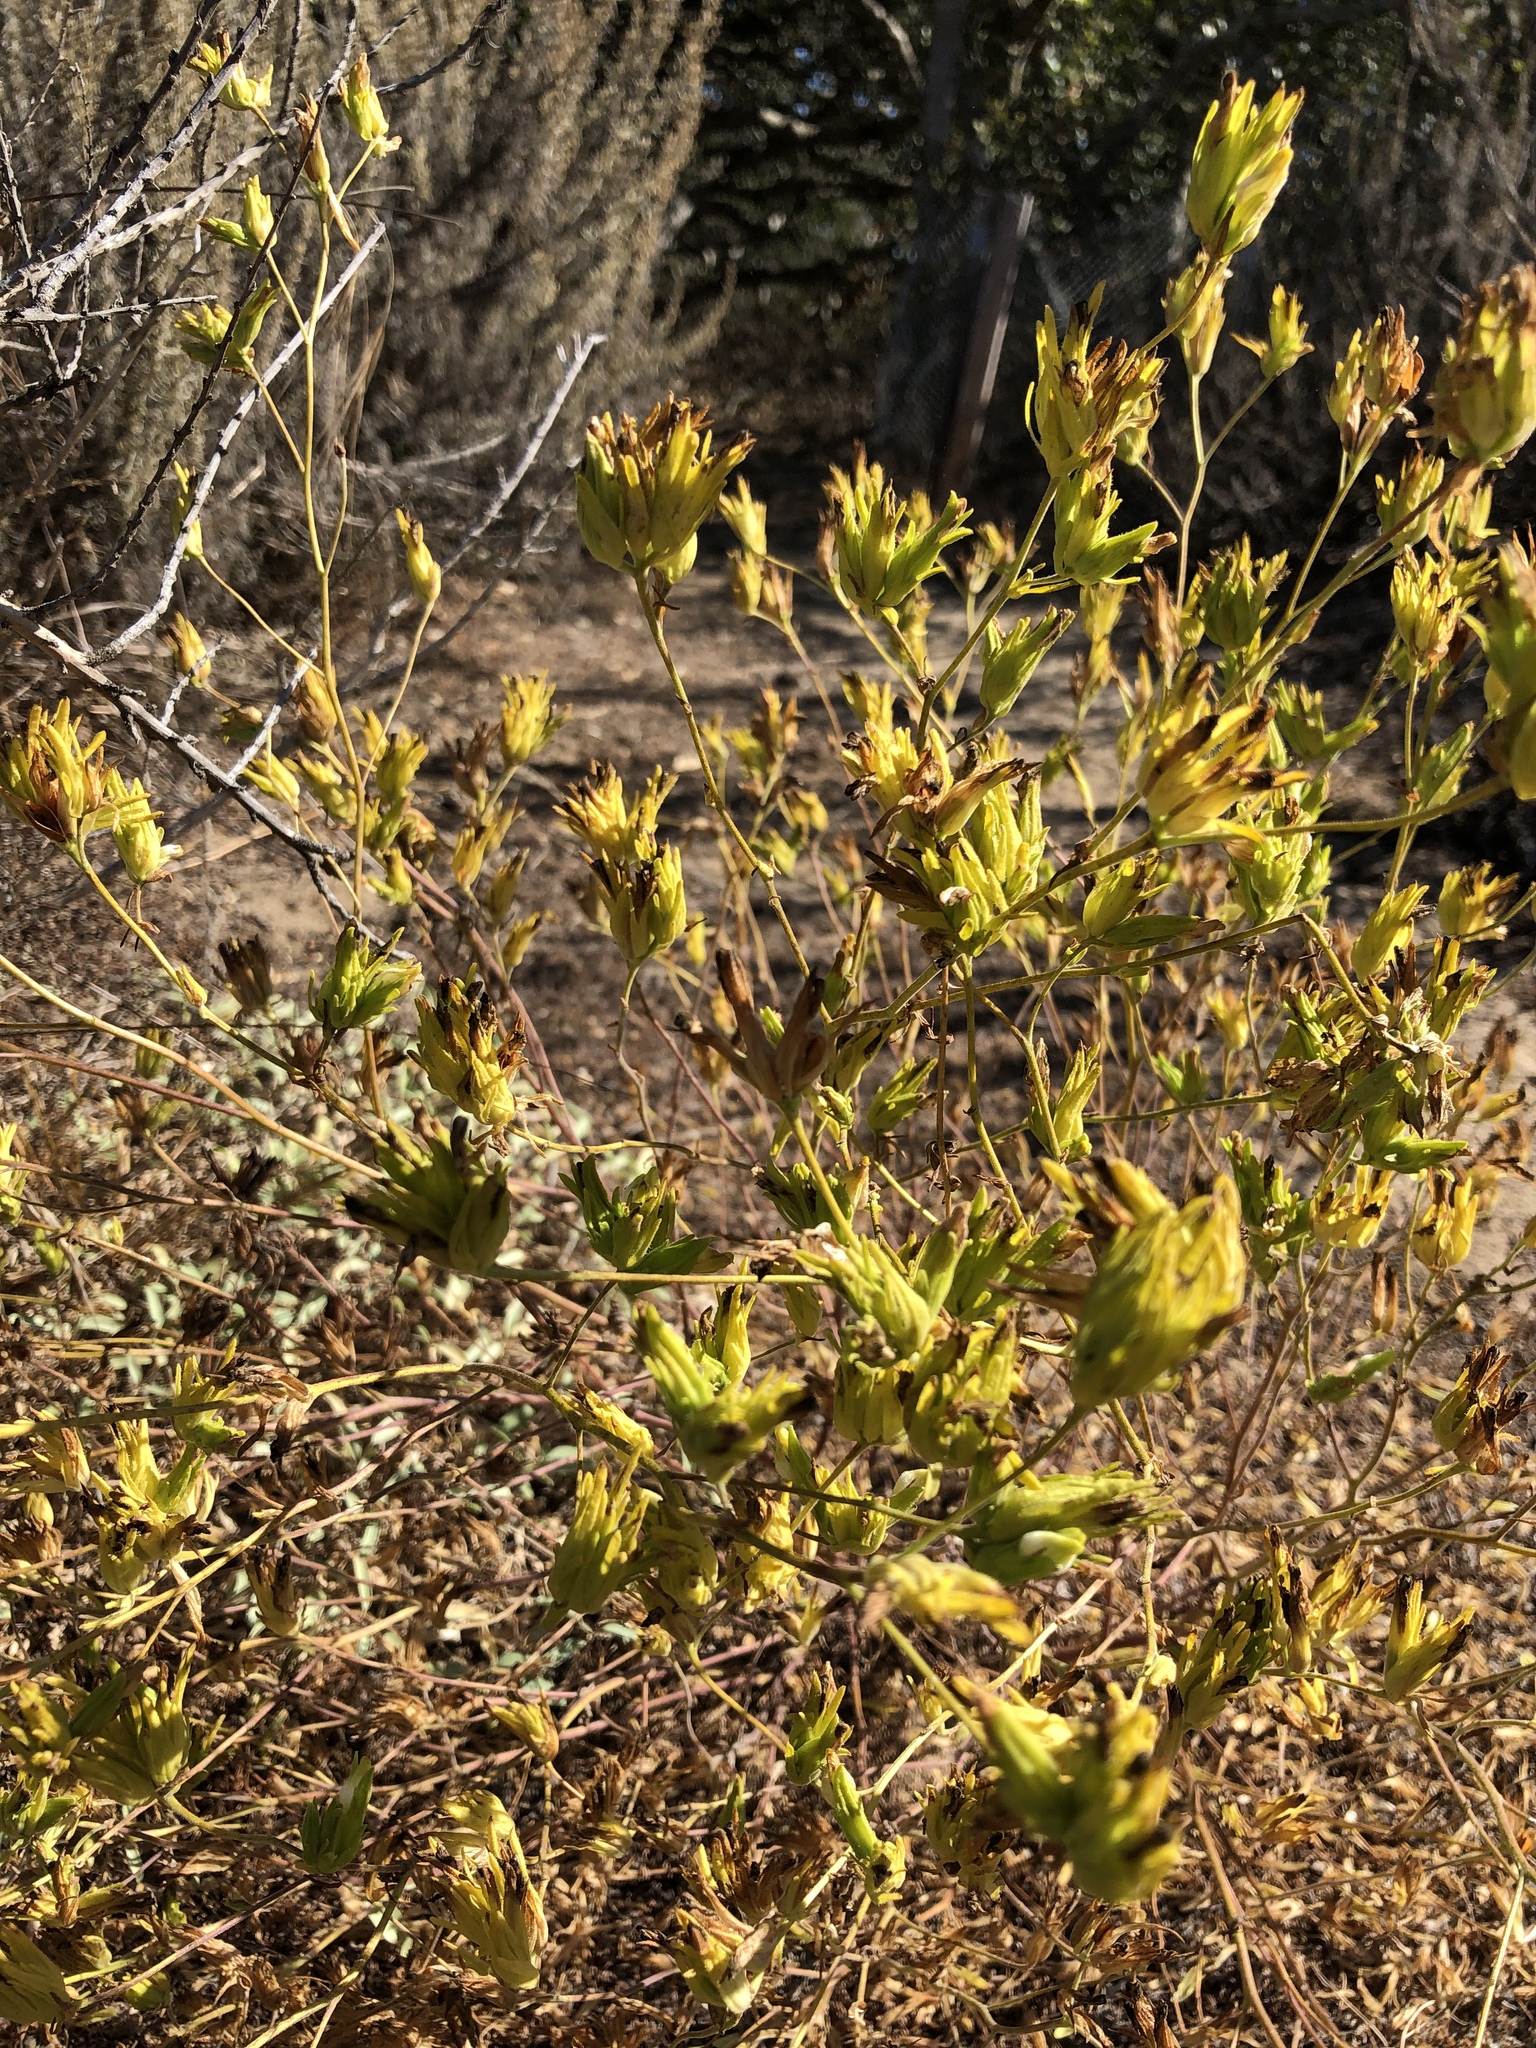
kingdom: Plantae
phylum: Tracheophyta
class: Magnoliopsida
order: Lamiales
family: Orobanchaceae
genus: Cordylanthus
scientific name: Cordylanthus rigidus
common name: Stiff-branch bird's-beak
